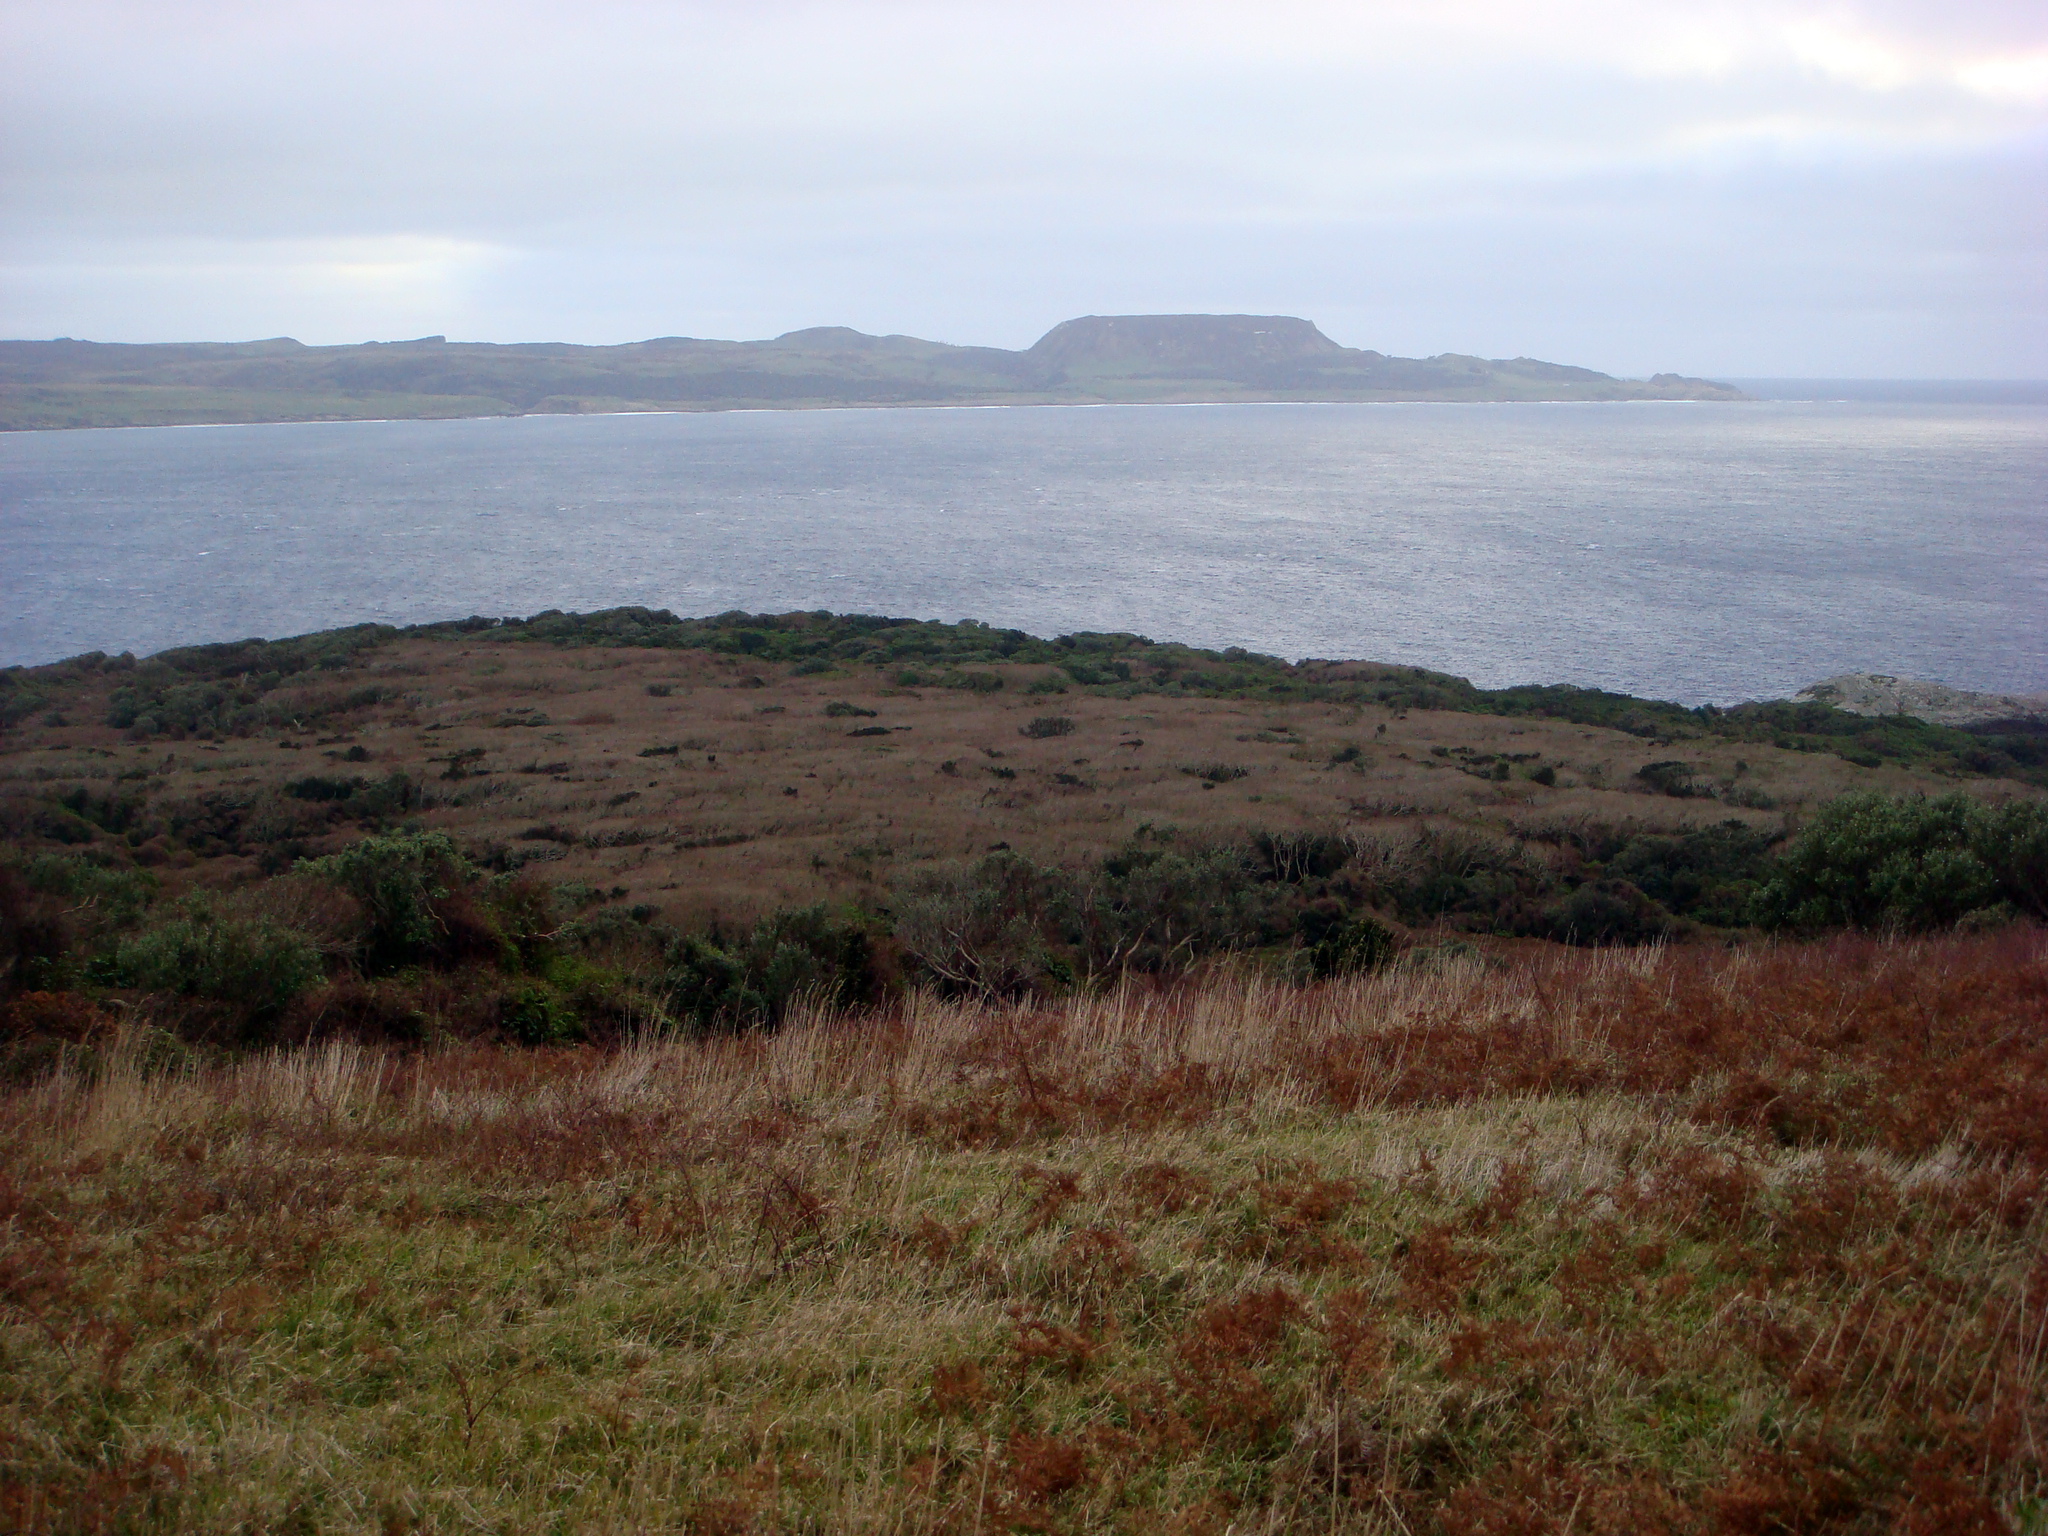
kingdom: Plantae
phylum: Tracheophyta
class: Magnoliopsida
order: Malvales
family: Malvaceae
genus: Plagianthus
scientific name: Plagianthus regius
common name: Manatu
